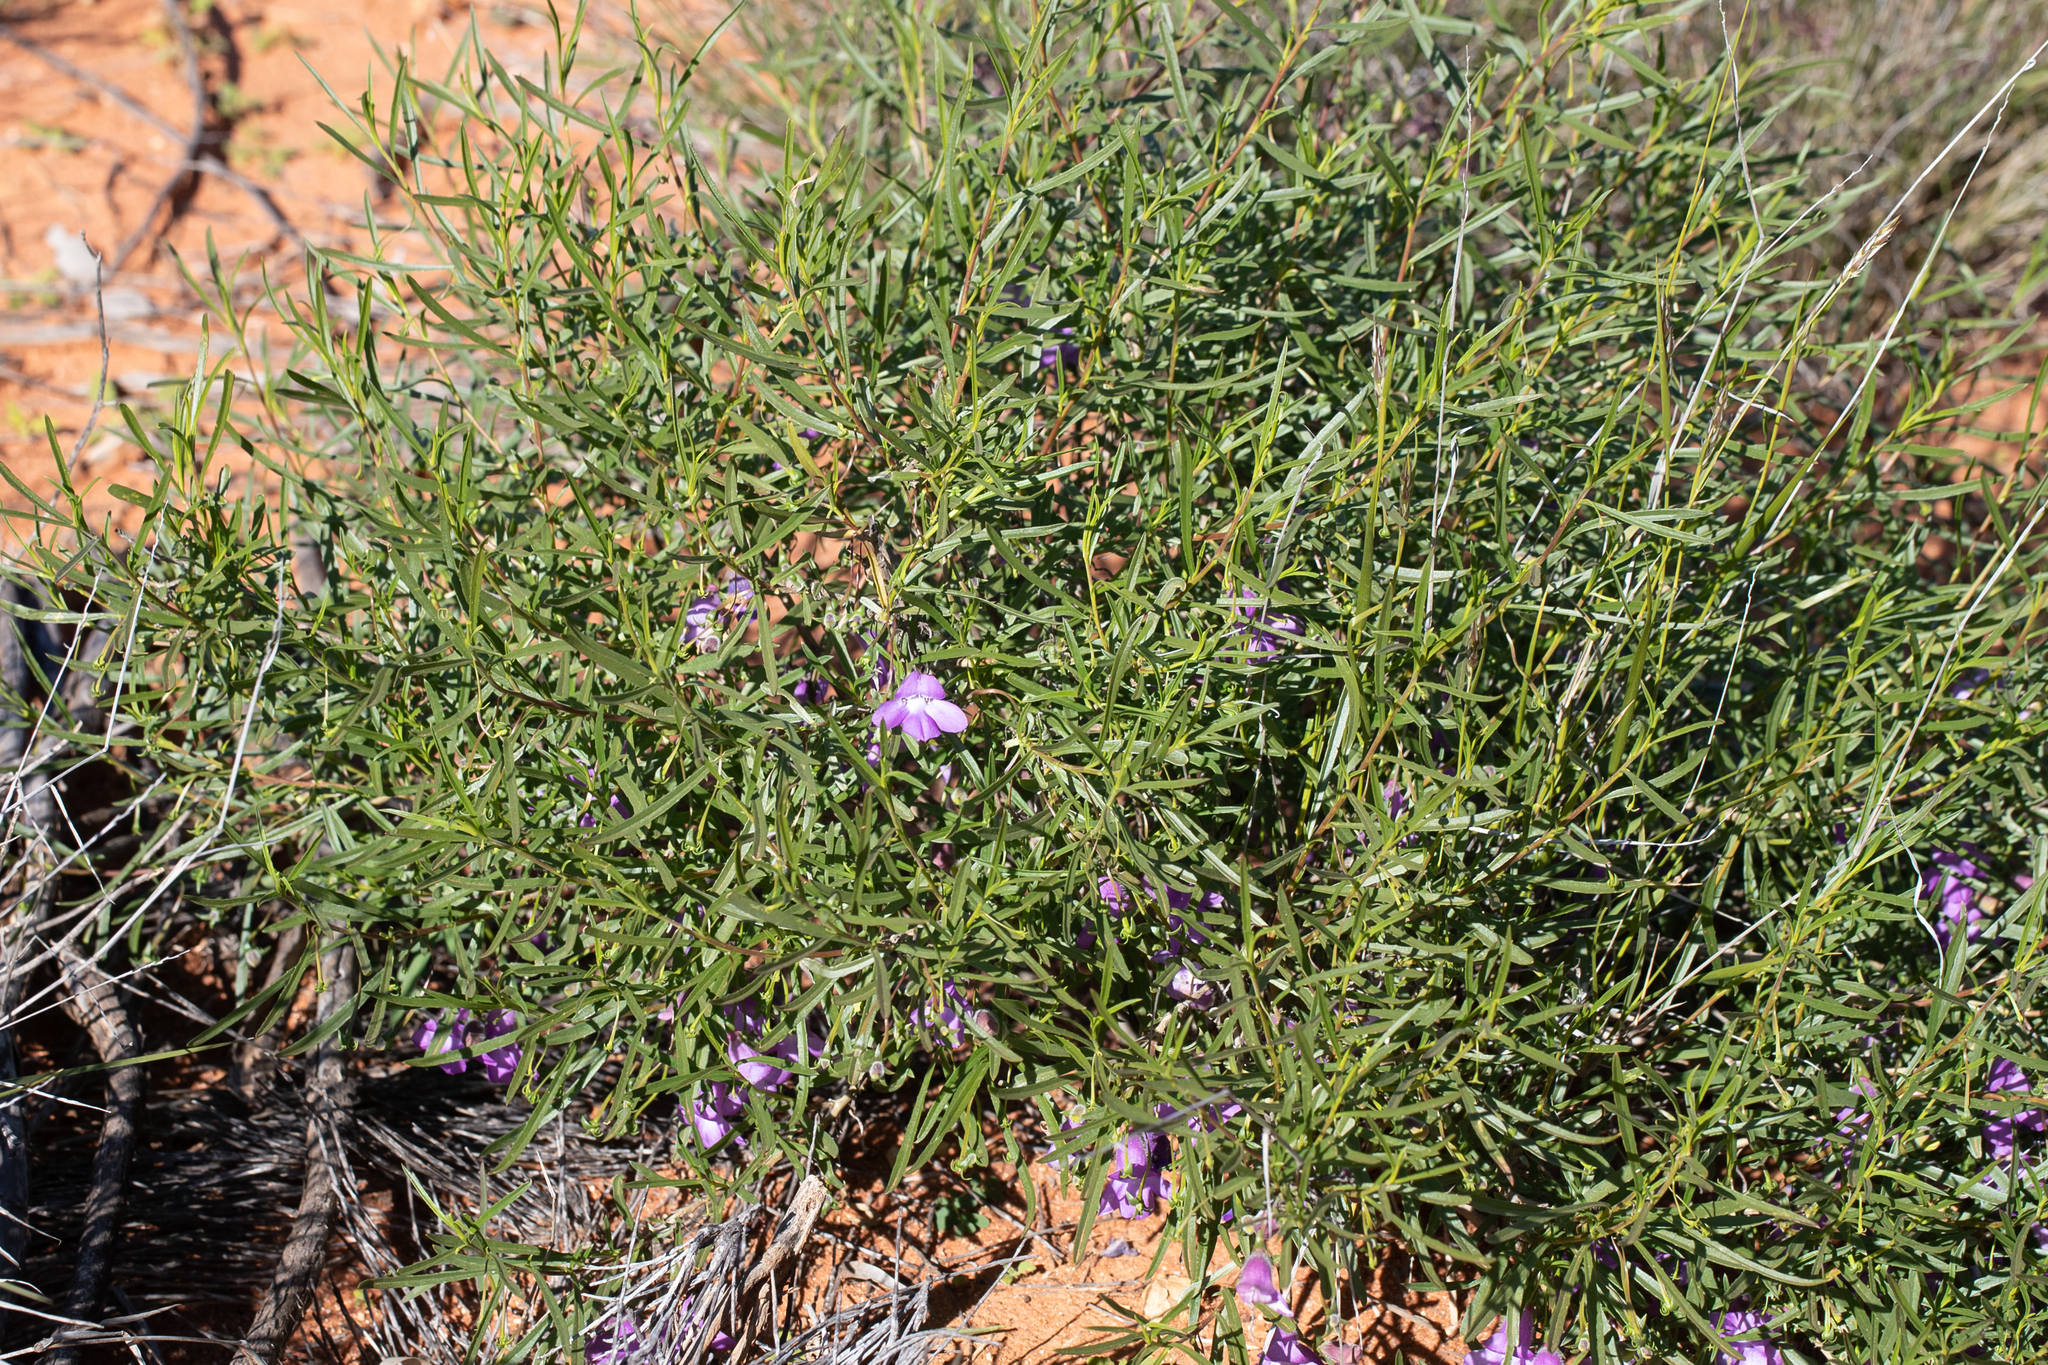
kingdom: Plantae
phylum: Tracheophyta
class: Magnoliopsida
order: Lamiales
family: Scrophulariaceae
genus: Eremophila
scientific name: Eremophila gilesii
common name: Desert fuchsia
